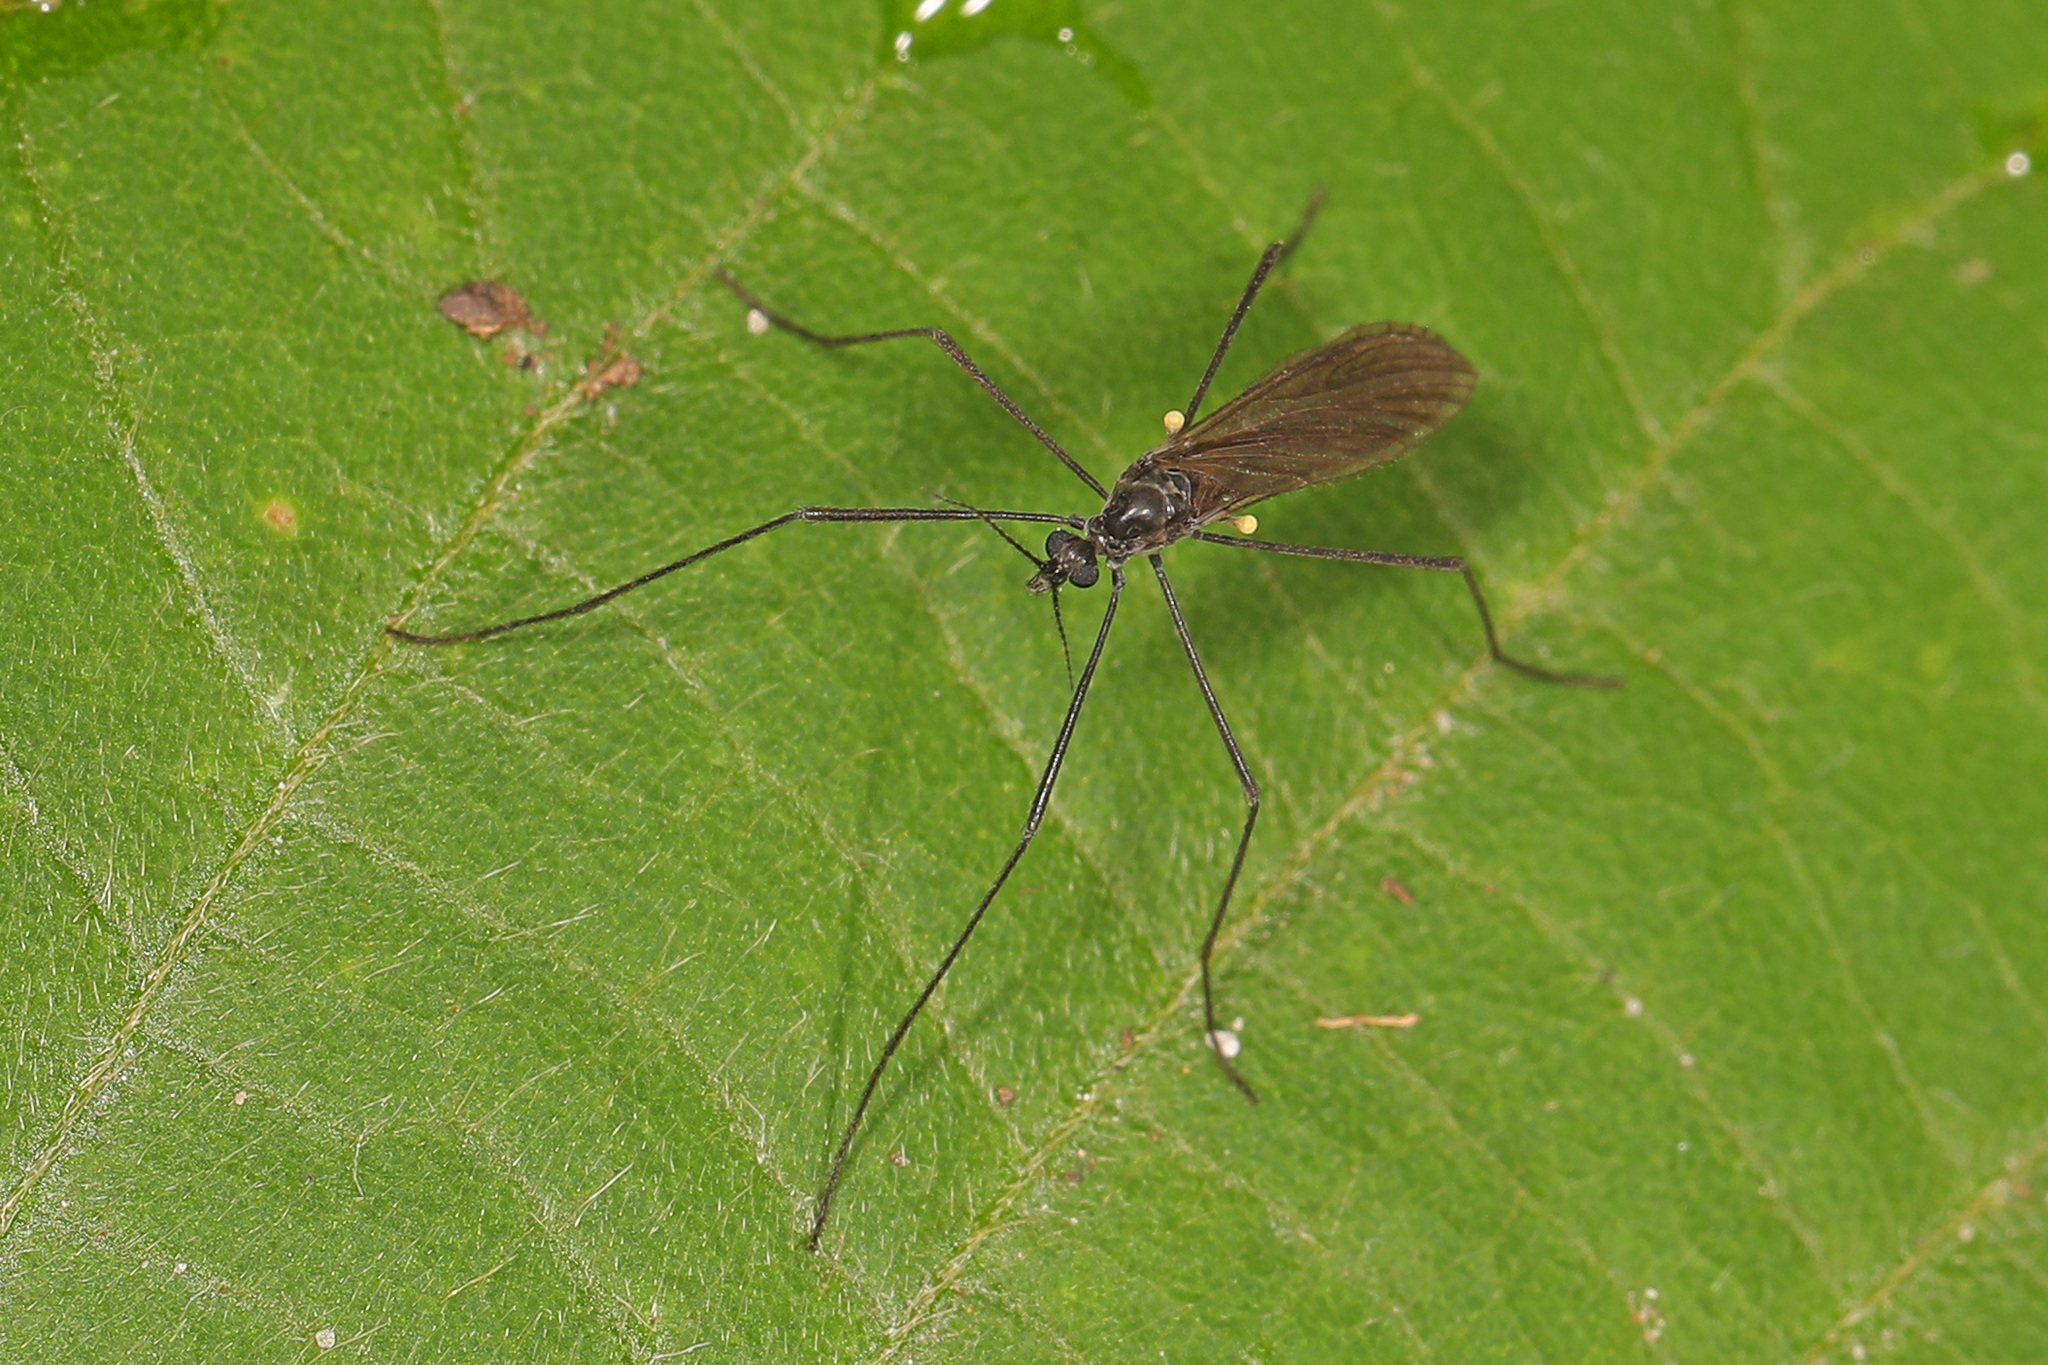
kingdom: Animalia
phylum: Arthropoda
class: Insecta
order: Diptera
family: Limoniidae
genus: Gnophomyia
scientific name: Gnophomyia tristissima
